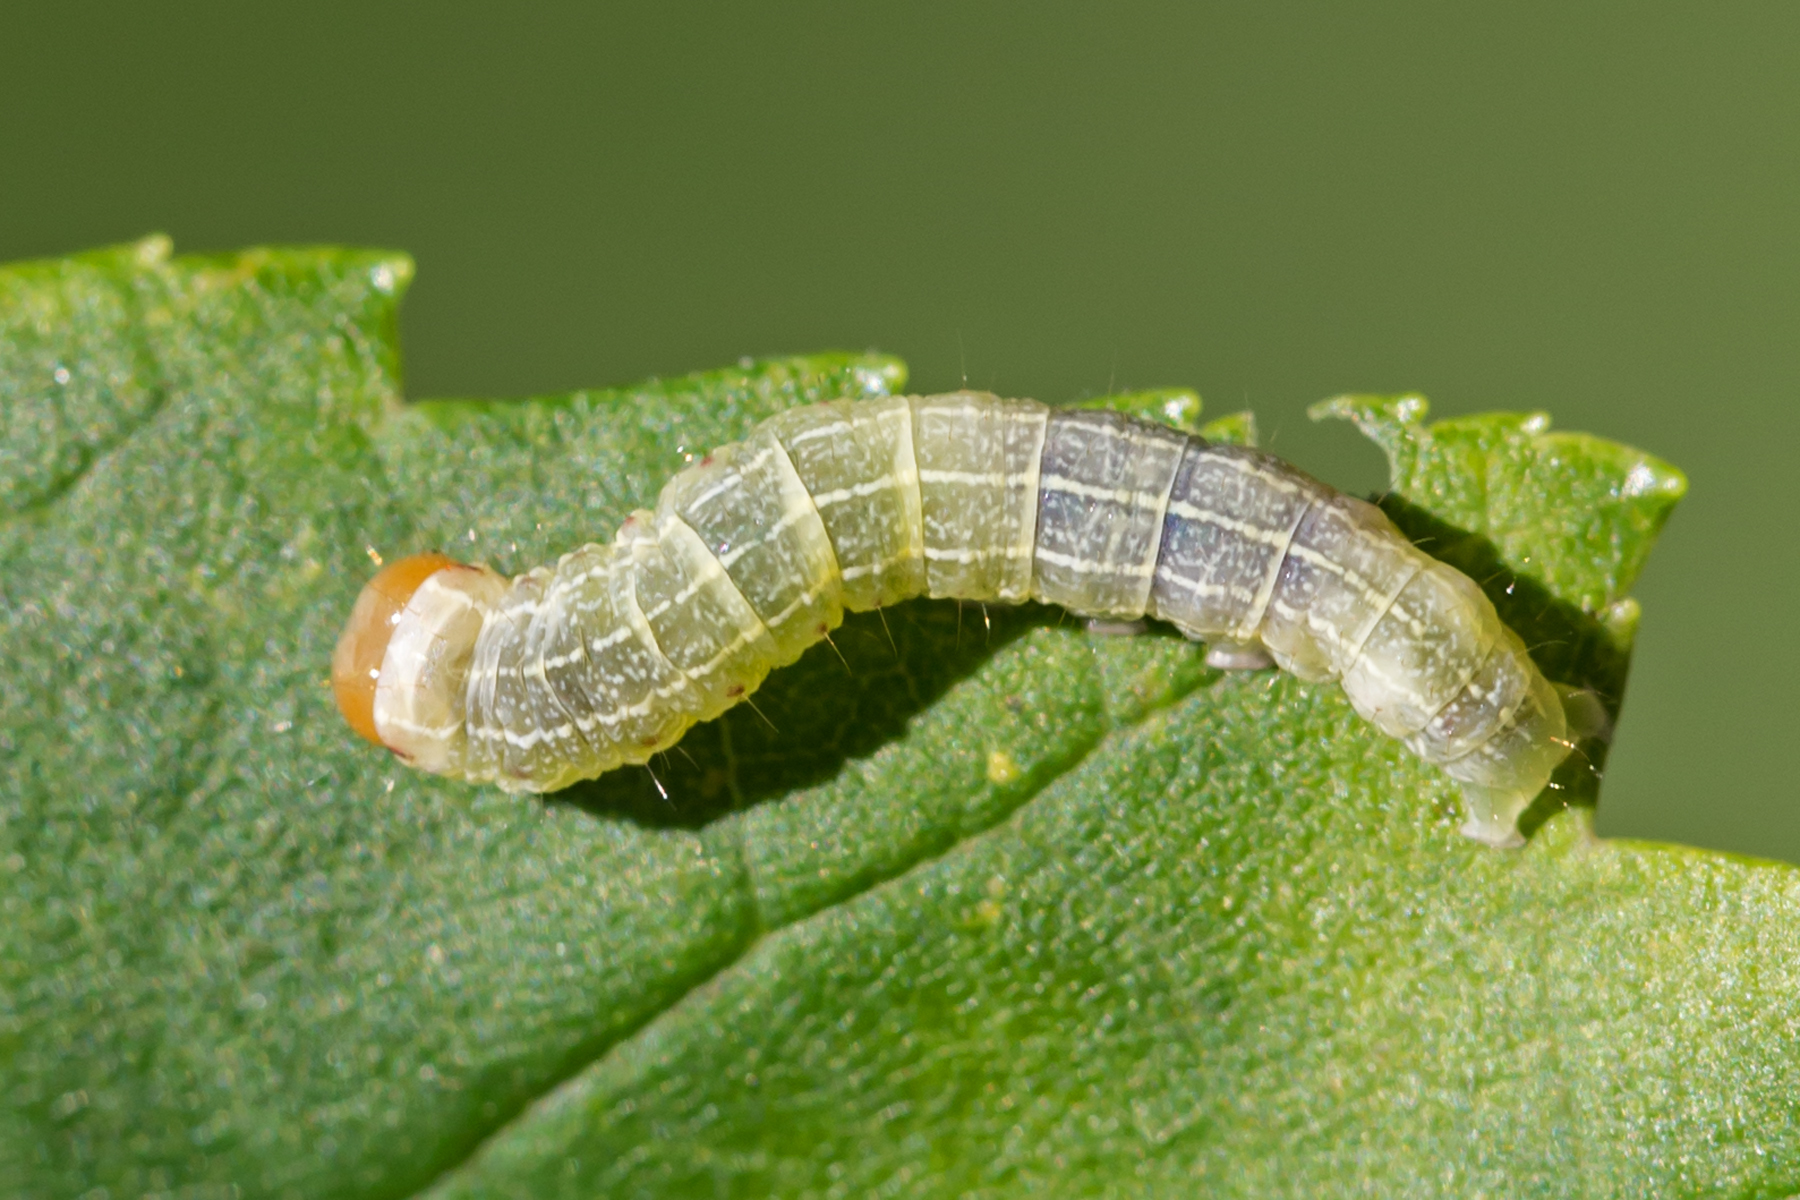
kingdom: Animalia
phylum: Arthropoda
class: Insecta
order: Lepidoptera
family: Noctuidae
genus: Achatia
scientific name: Achatia confusa
